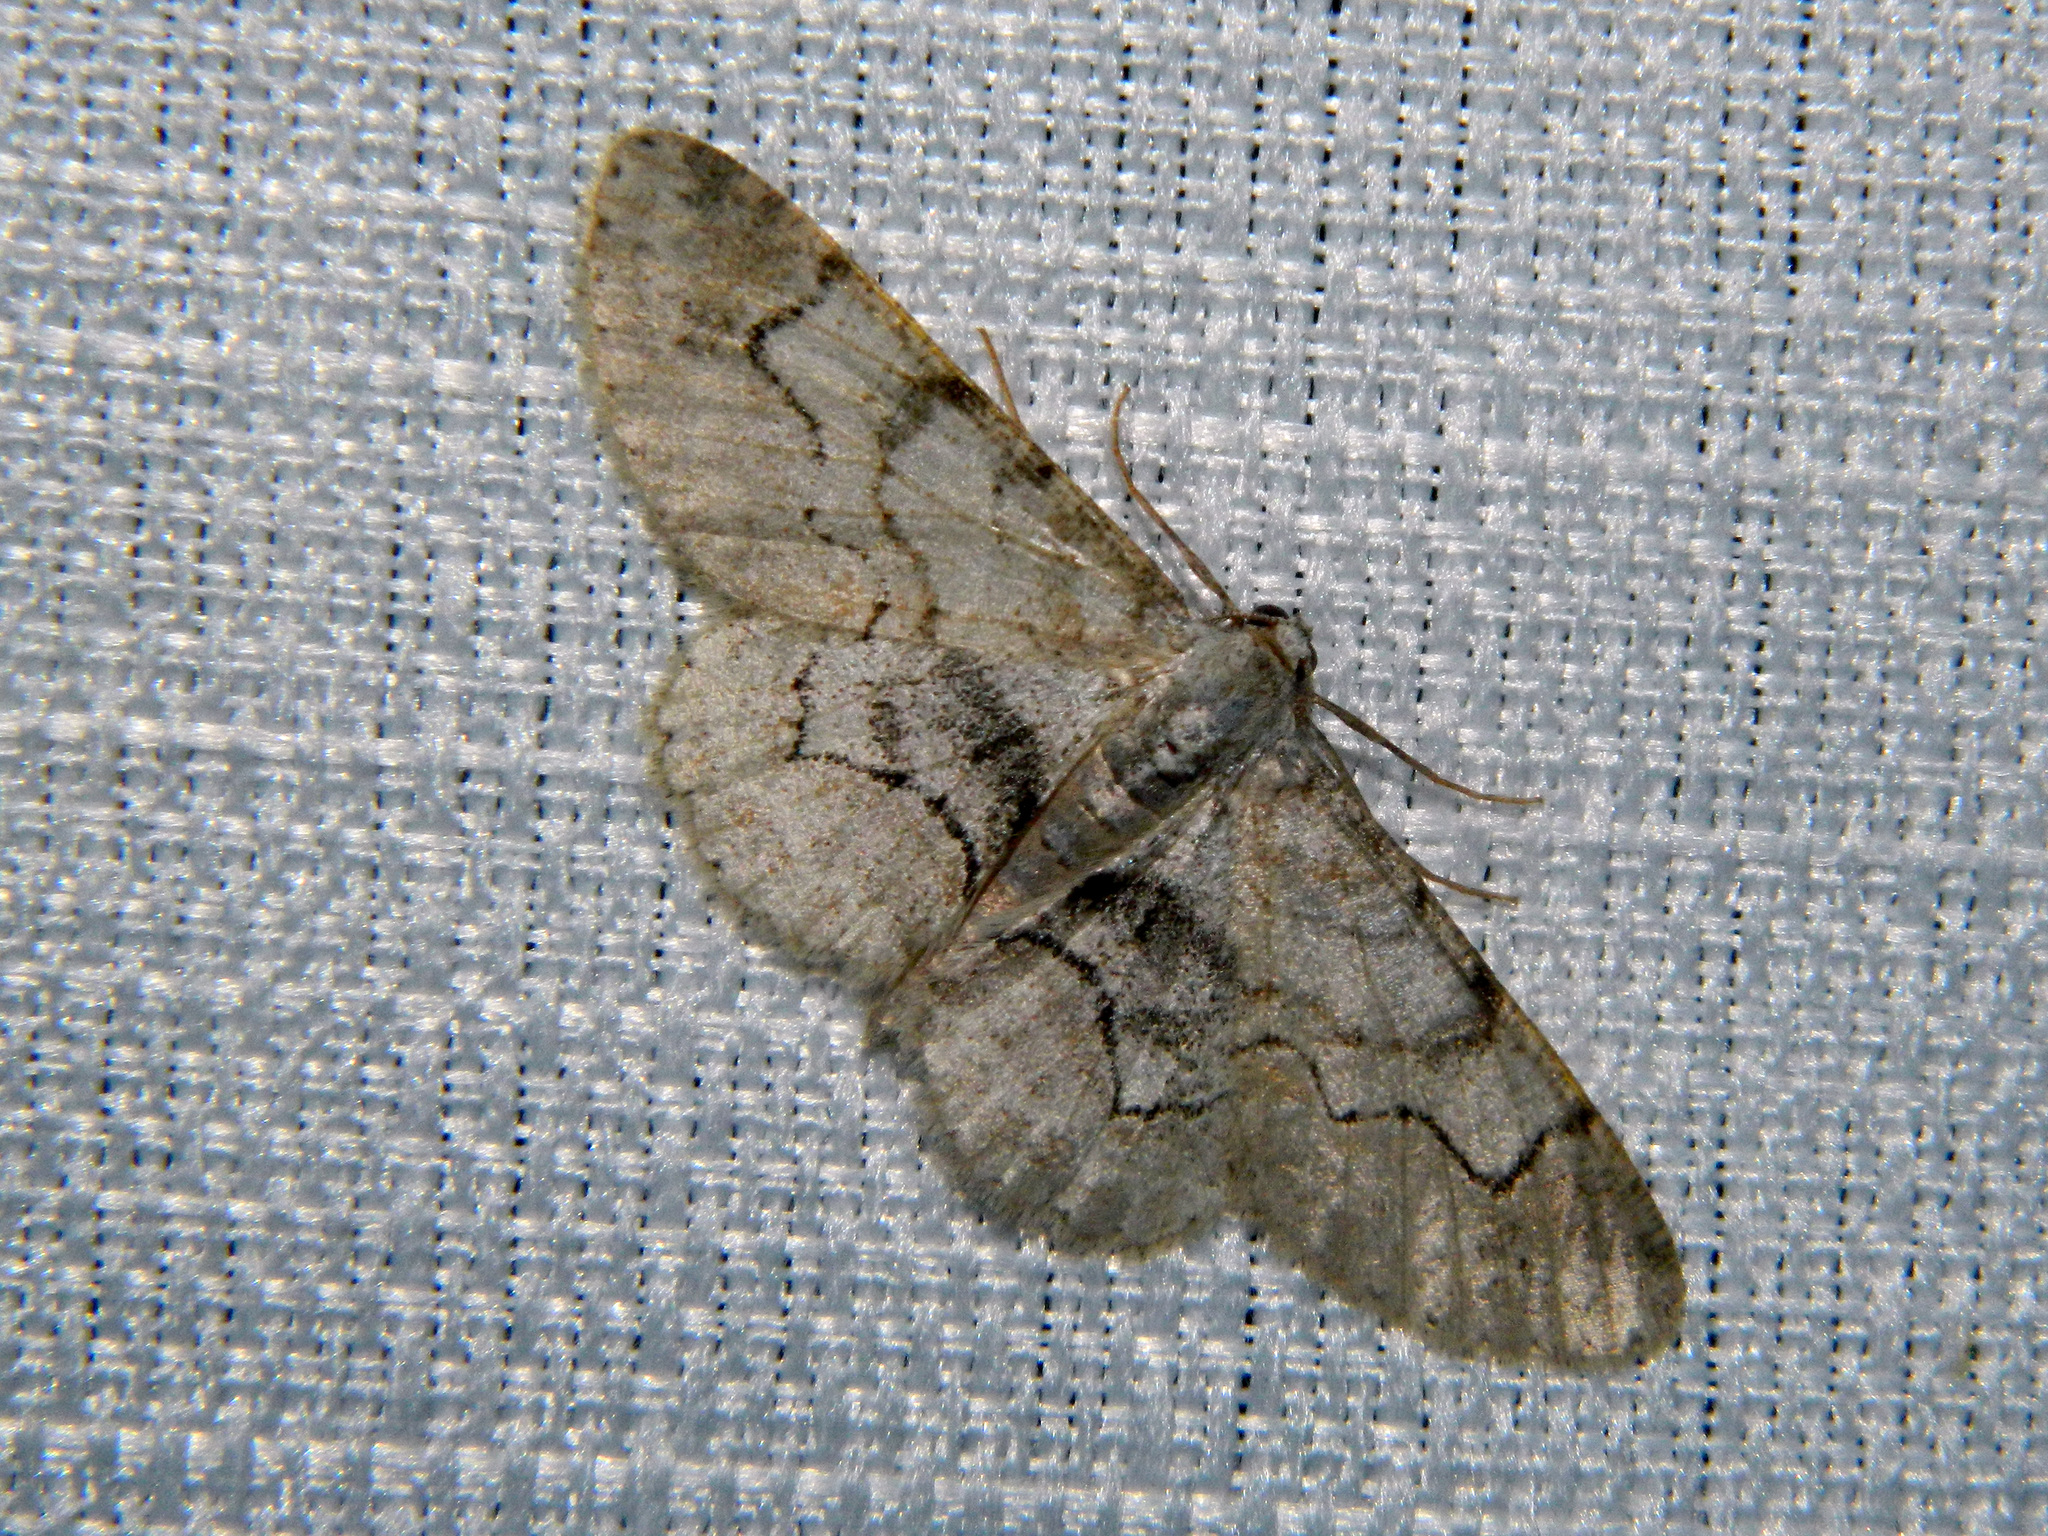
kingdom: Animalia
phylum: Arthropoda
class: Insecta
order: Lepidoptera
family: Geometridae
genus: Iridopsis
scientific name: Iridopsis larvaria
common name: Bent-line gray
